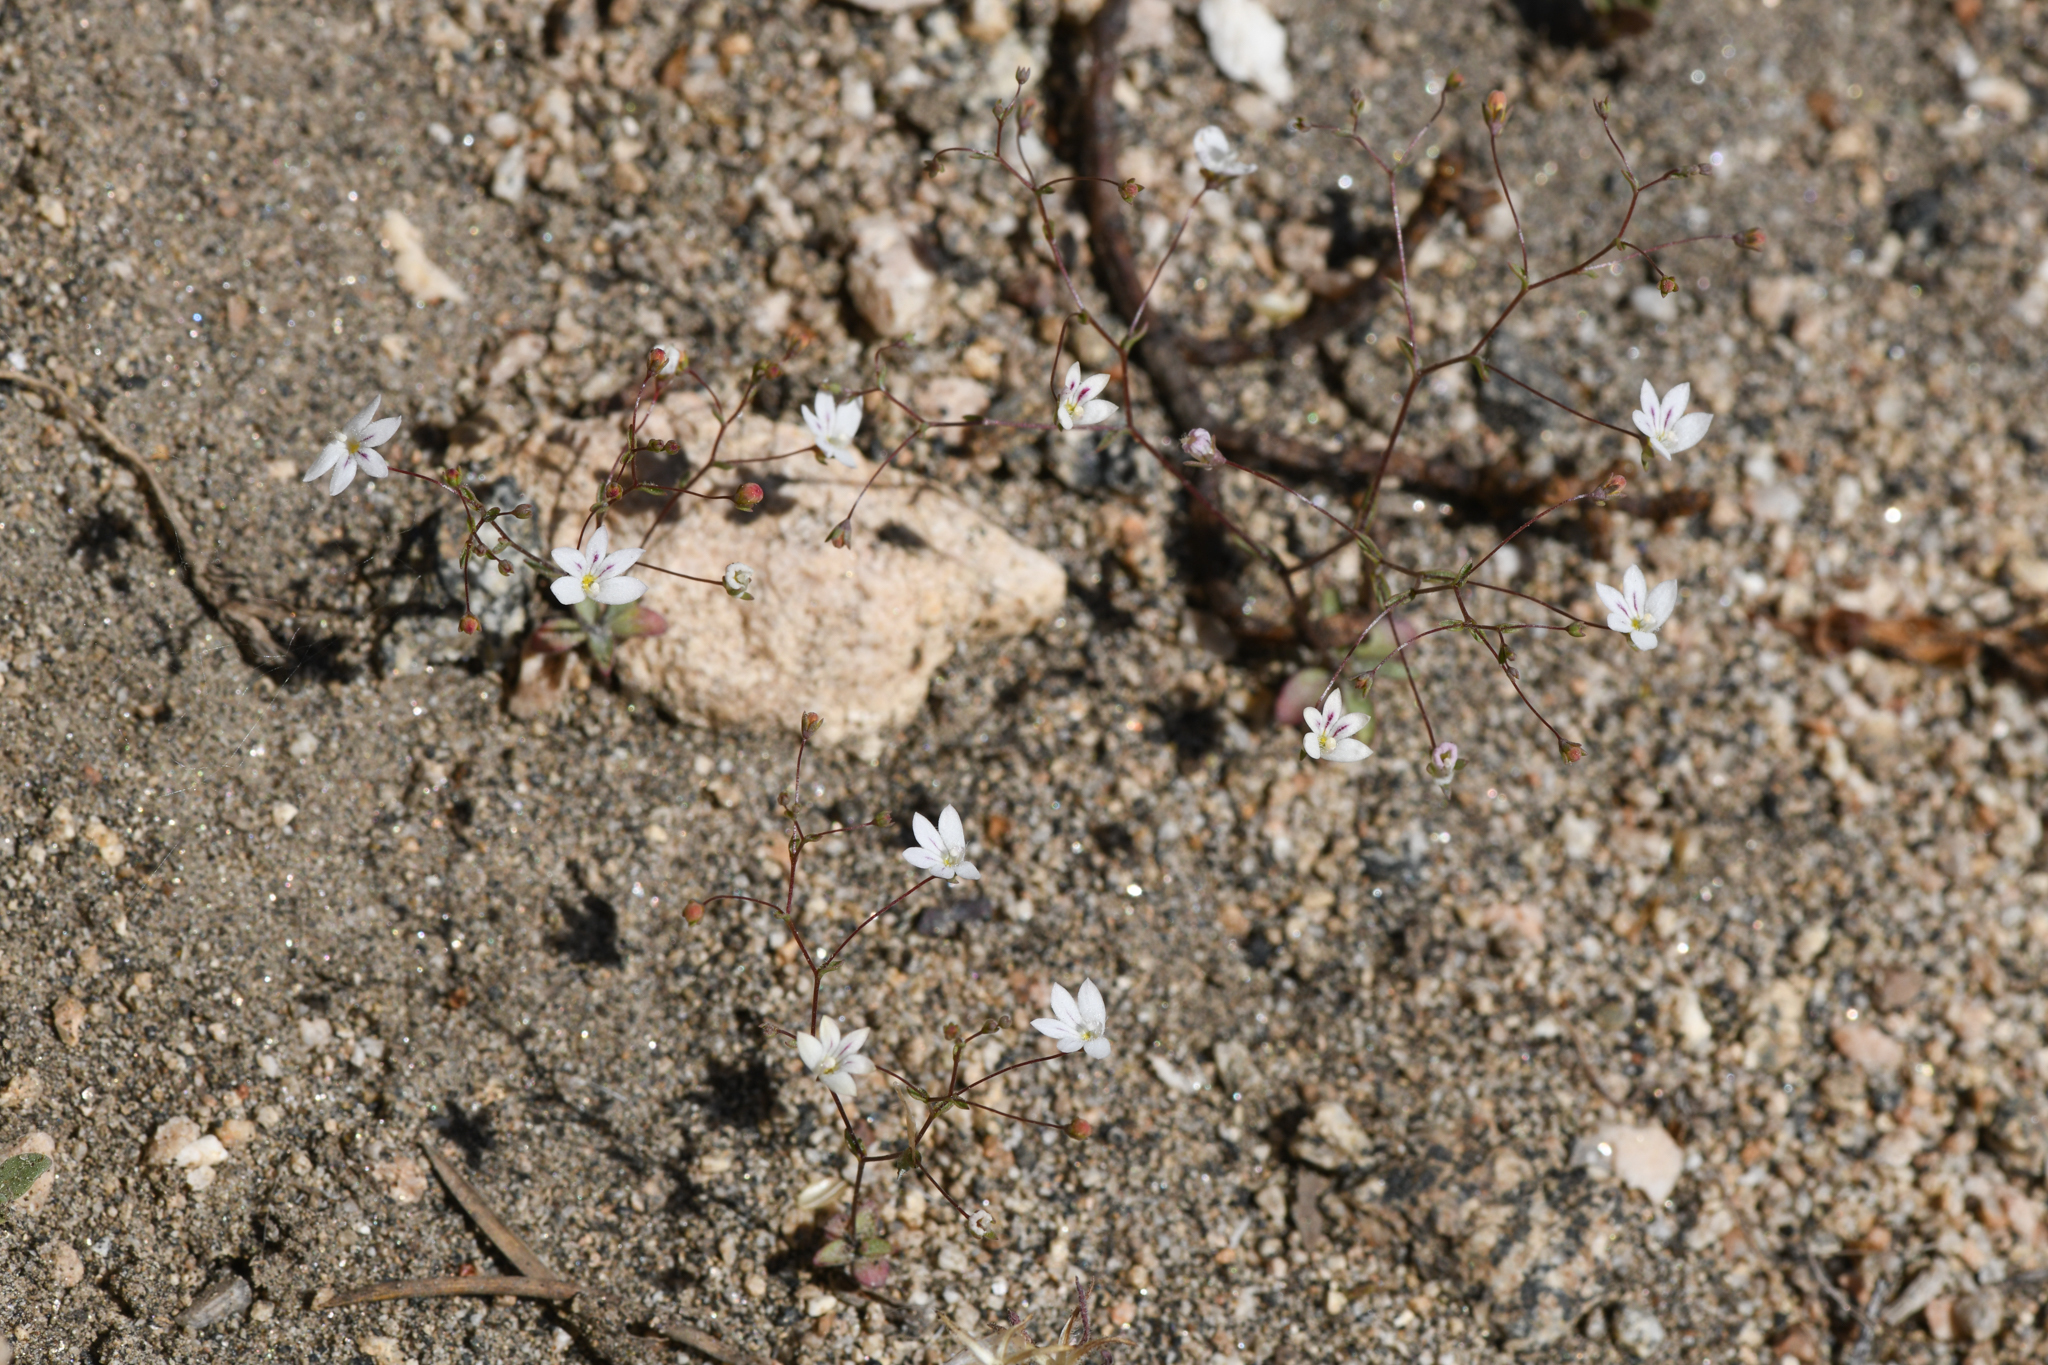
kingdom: Plantae
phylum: Tracheophyta
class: Magnoliopsida
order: Asterales
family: Campanulaceae
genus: Nemacladus
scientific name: Nemacladus calcaratus
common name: Spurred threadplant
